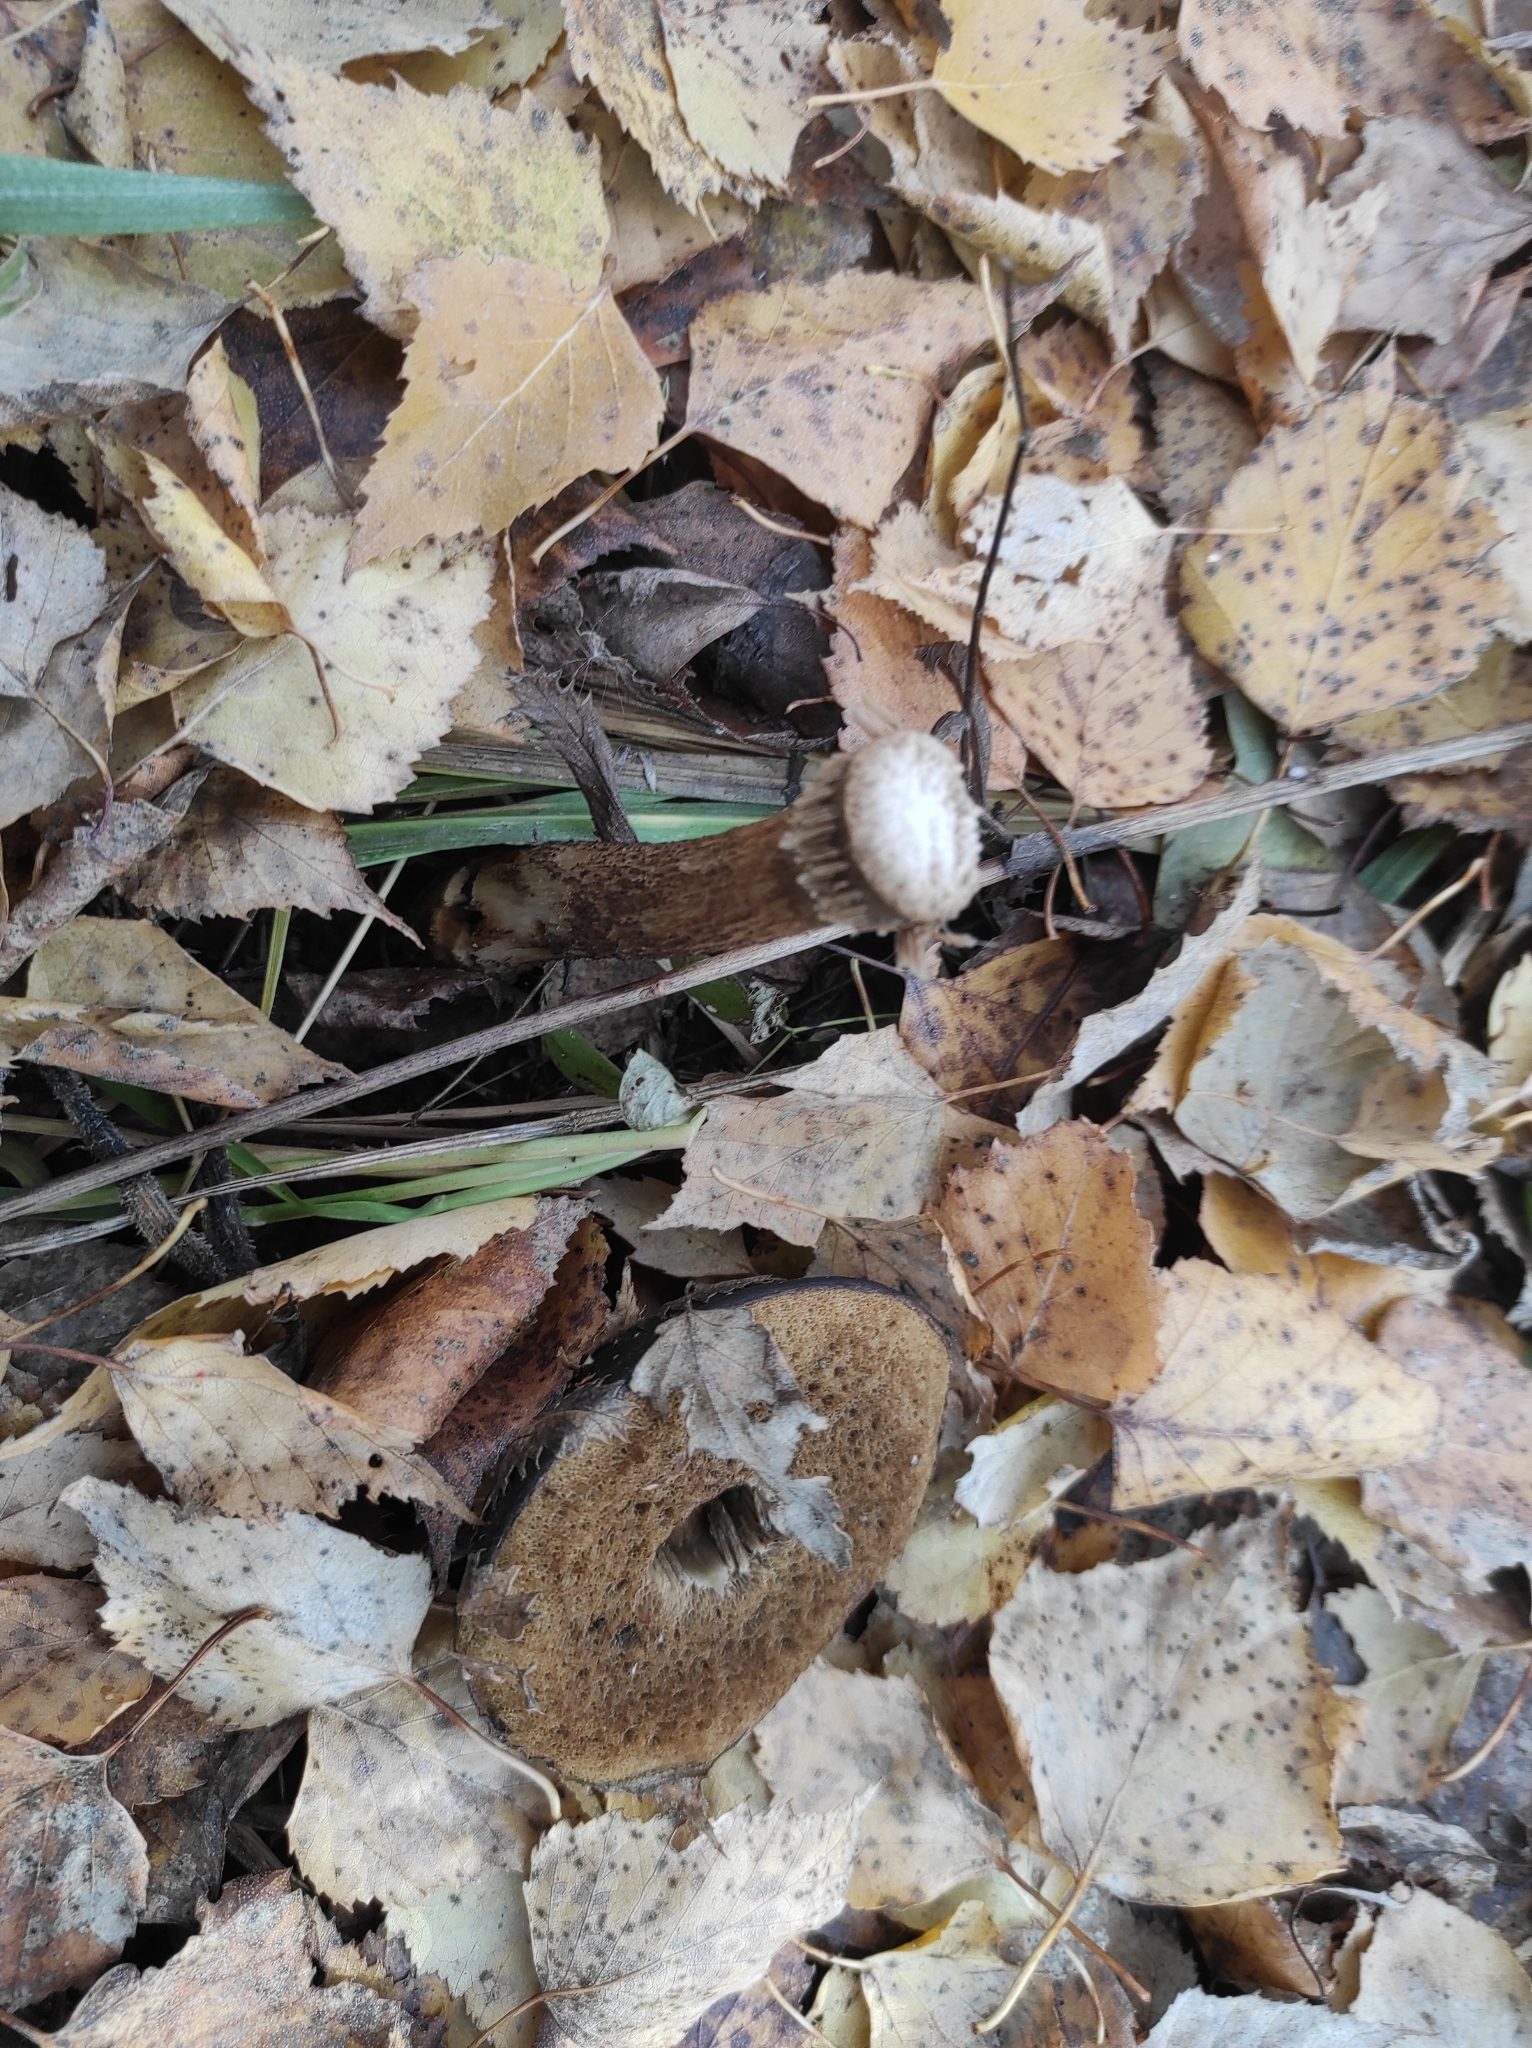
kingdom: Fungi
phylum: Basidiomycota
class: Agaricomycetes
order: Boletales
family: Boletaceae
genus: Leccinum
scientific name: Leccinum scabrum
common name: Blushing bolete
